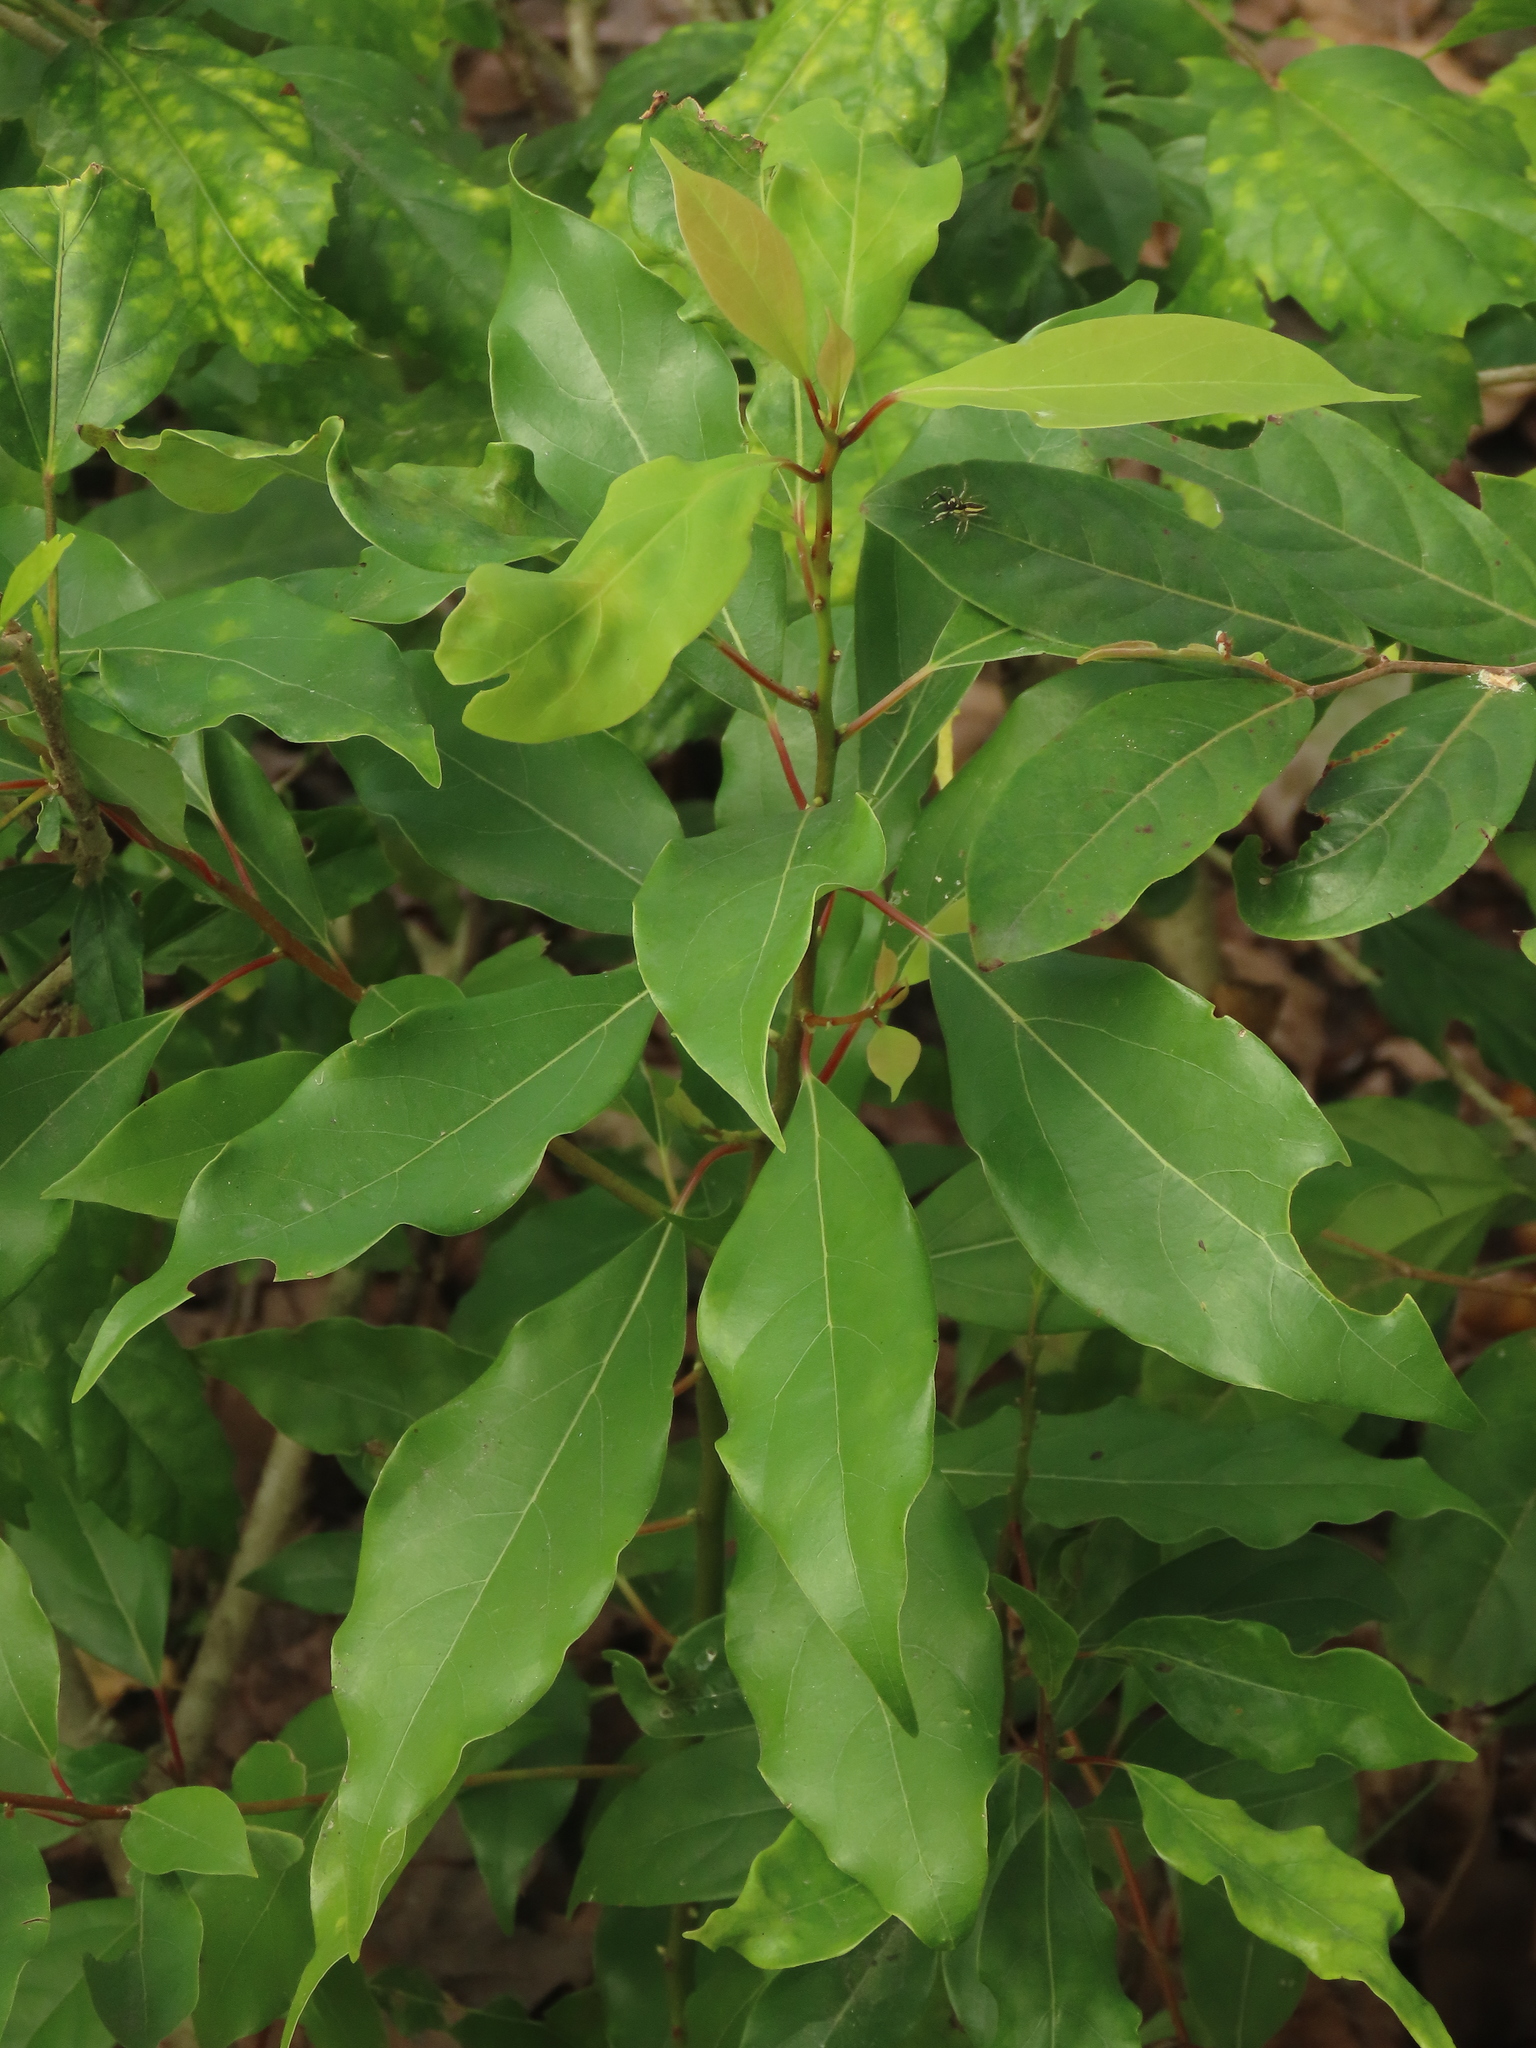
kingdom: Plantae
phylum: Tracheophyta
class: Magnoliopsida
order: Laurales
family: Lauraceae
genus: Cinnamomum
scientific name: Cinnamomum camphora
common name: Camphortree
